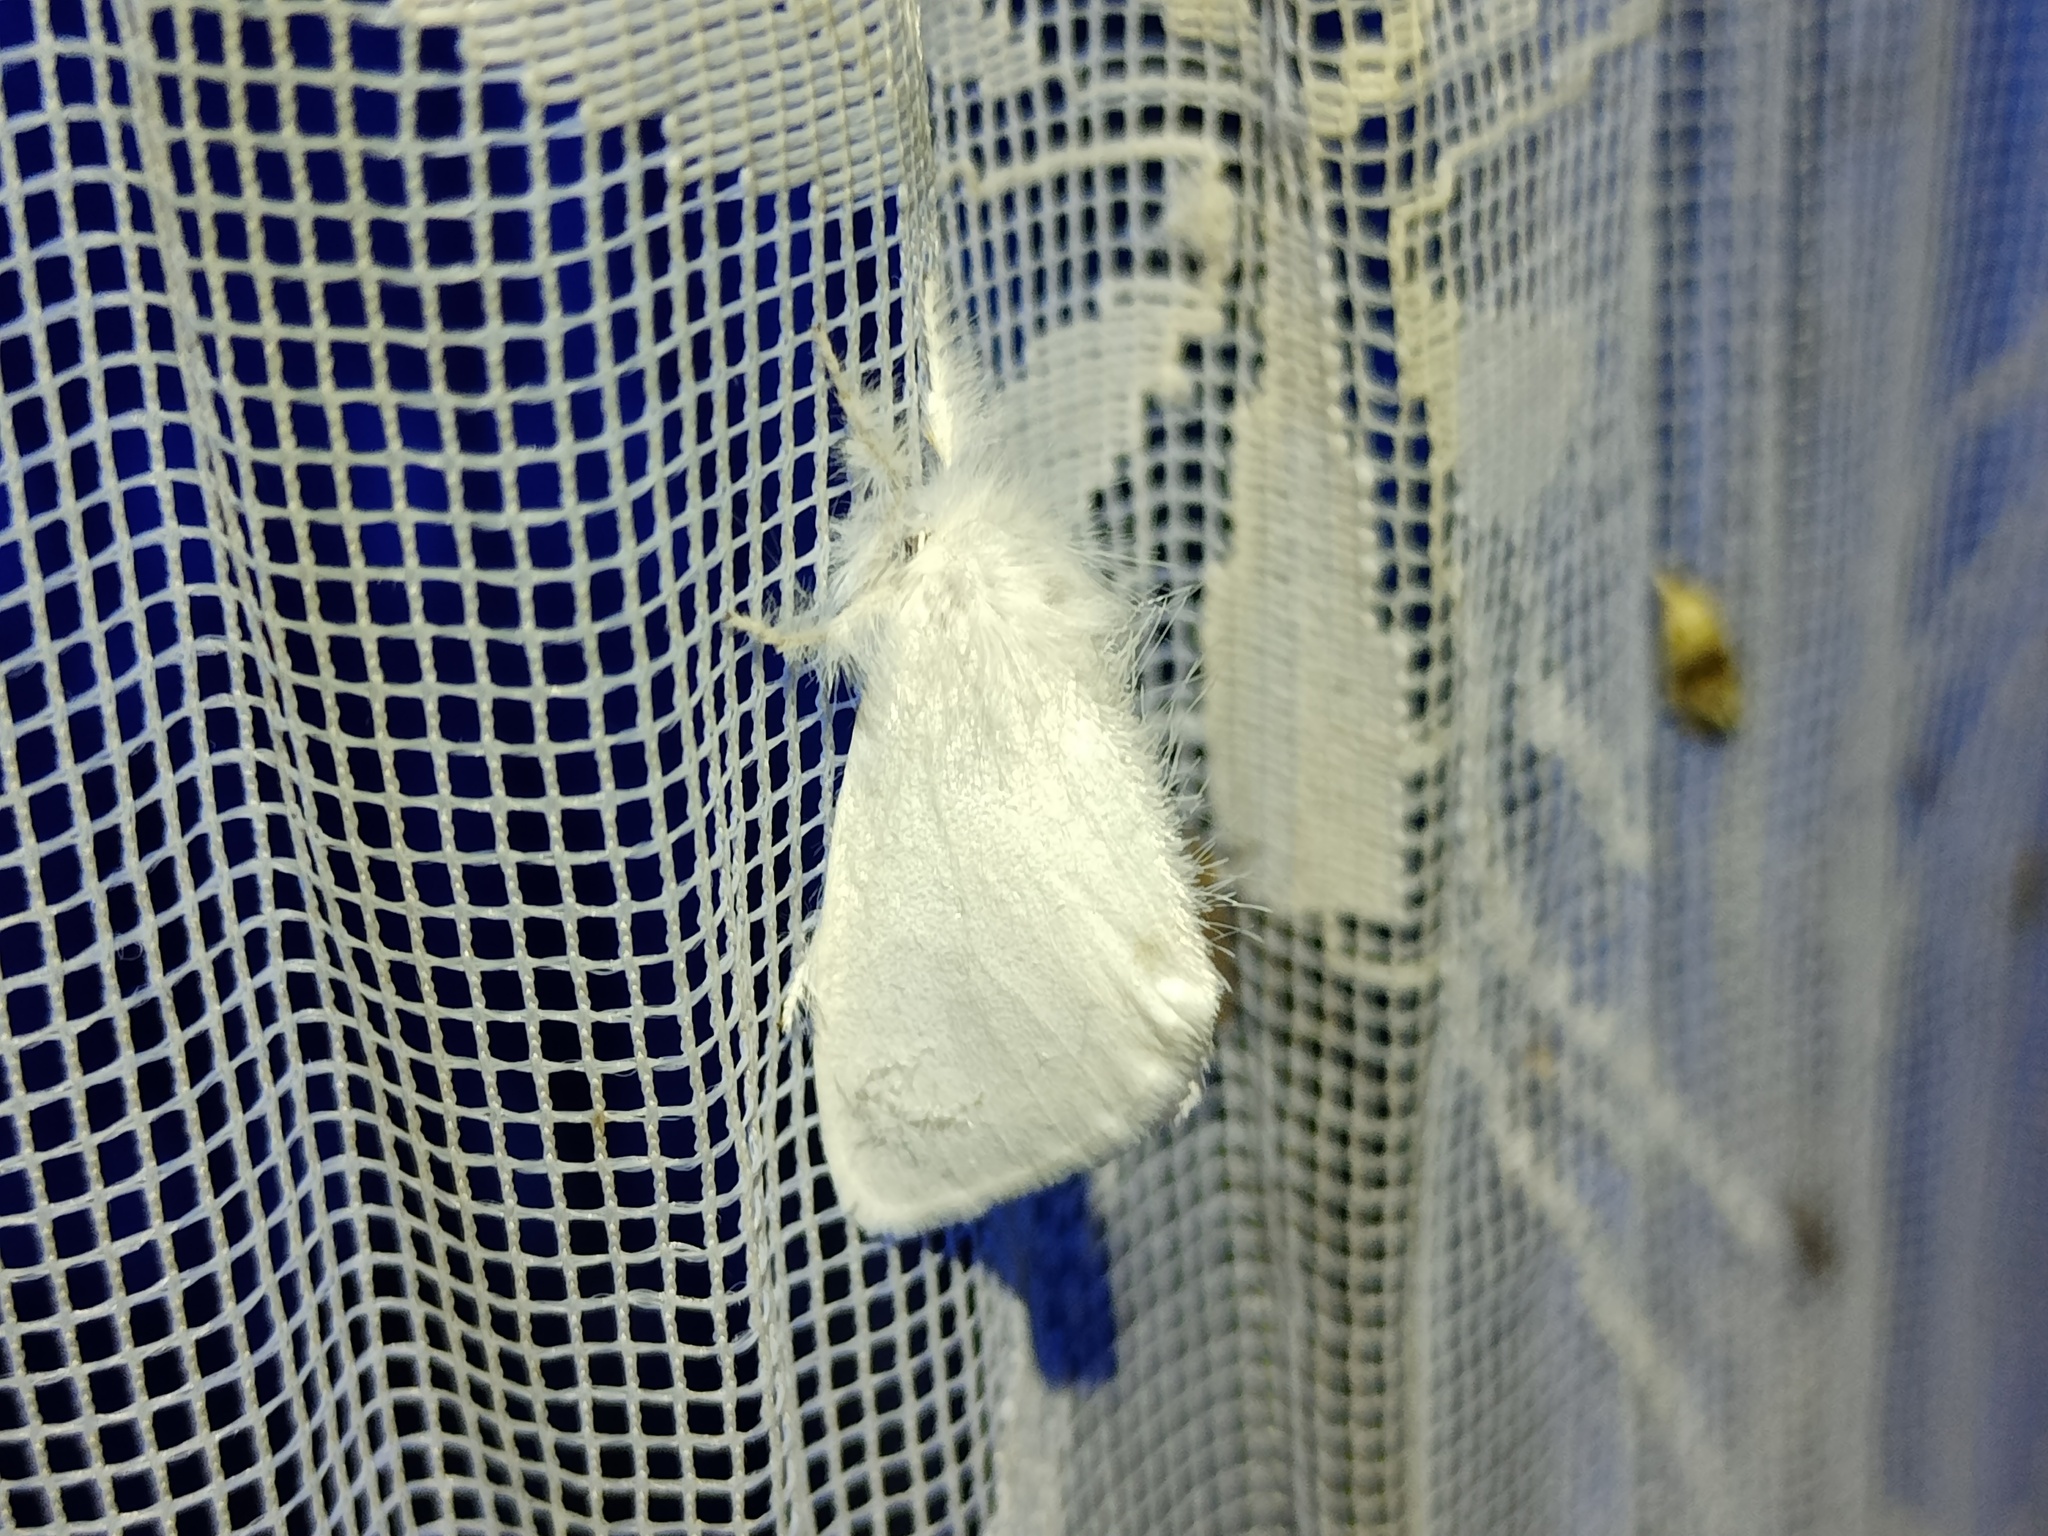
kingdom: Animalia
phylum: Arthropoda
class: Insecta
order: Lepidoptera
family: Erebidae
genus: Sphrageidus
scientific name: Sphrageidus similis
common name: Yellow-tail
